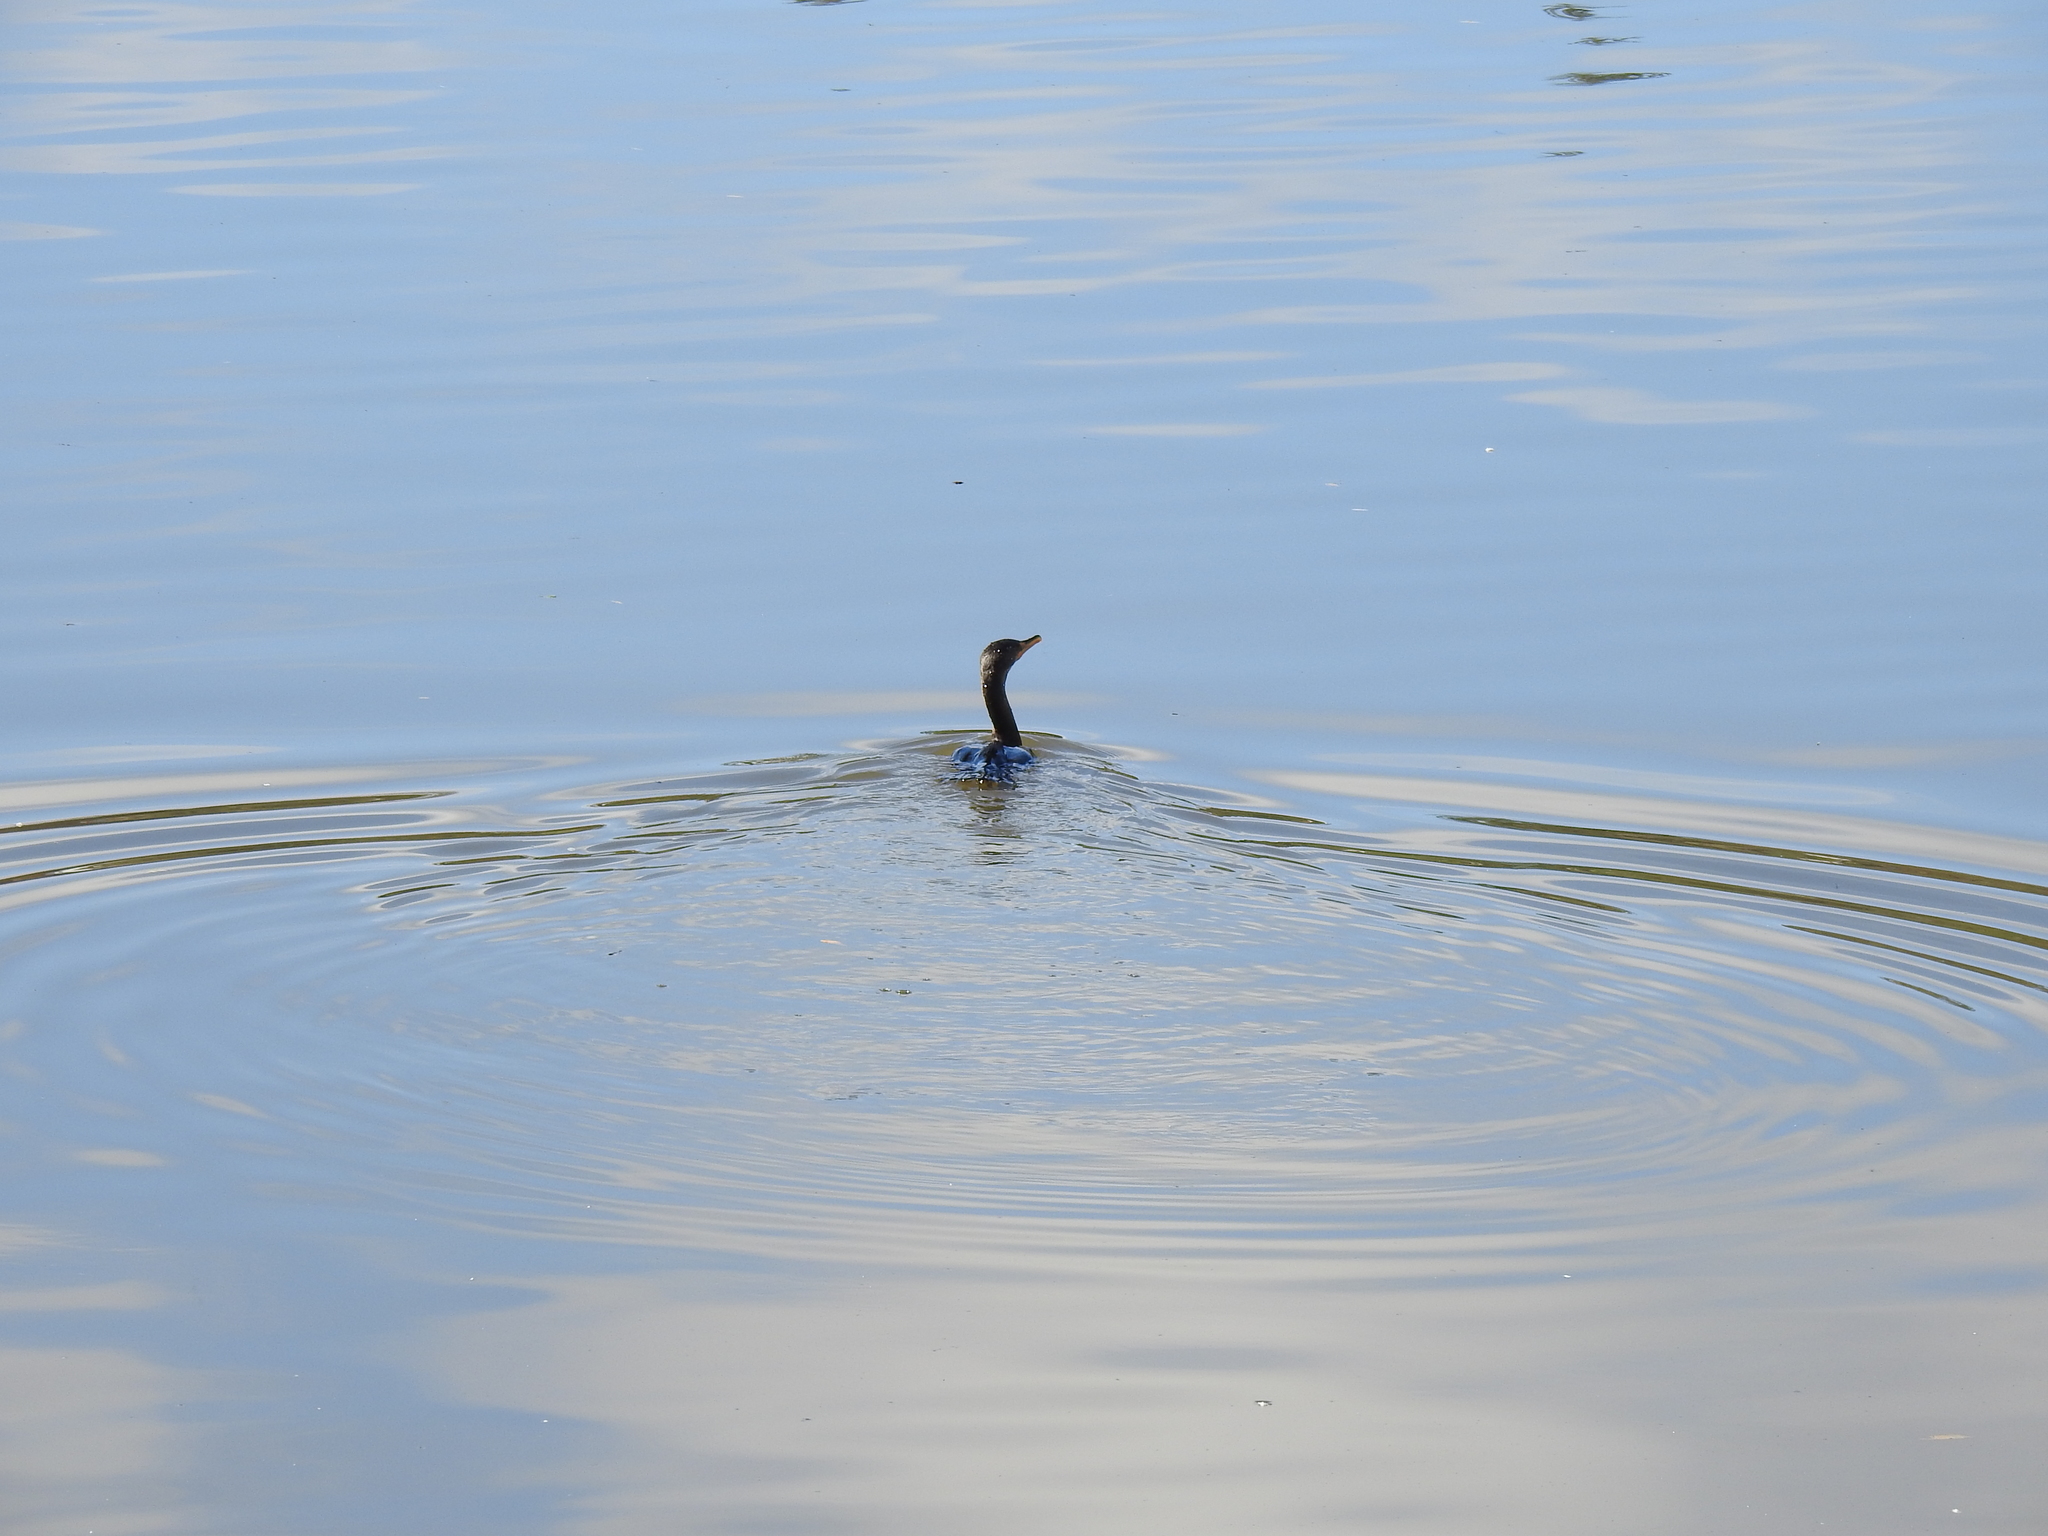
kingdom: Animalia
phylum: Chordata
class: Aves
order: Suliformes
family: Phalacrocoracidae
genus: Phalacrocorax
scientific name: Phalacrocorax auritus
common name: Double-crested cormorant
